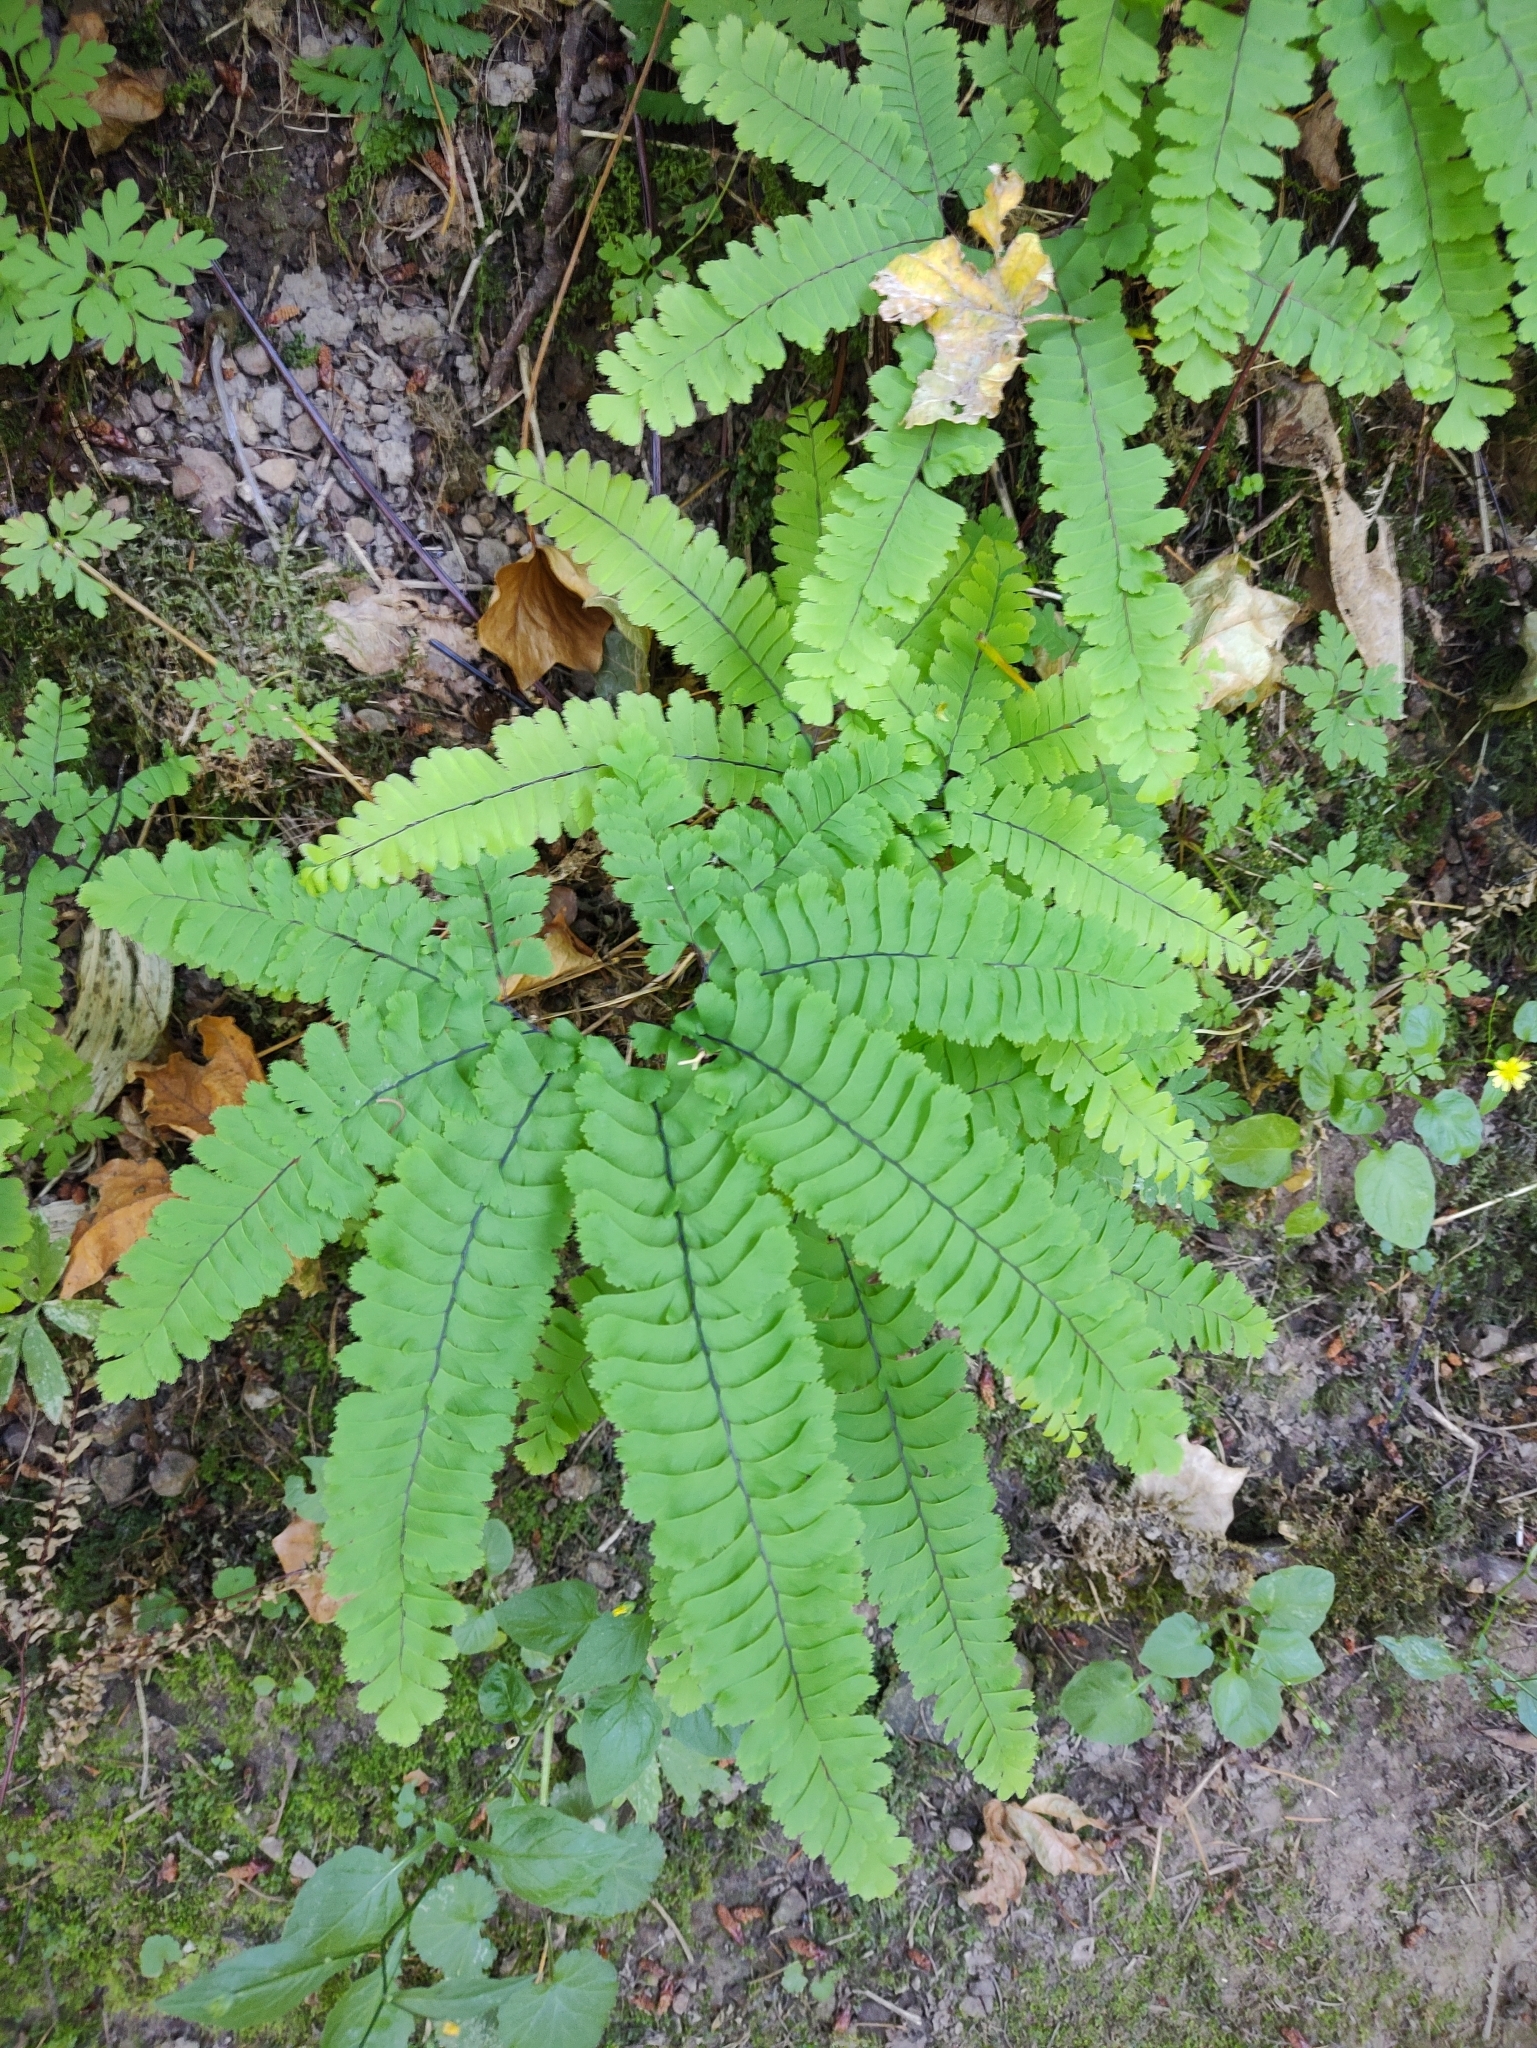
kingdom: Plantae
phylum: Tracheophyta
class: Polypodiopsida
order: Polypodiales
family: Pteridaceae
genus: Adiantum
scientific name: Adiantum aleuticum
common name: Aleutian maidenhair fern
